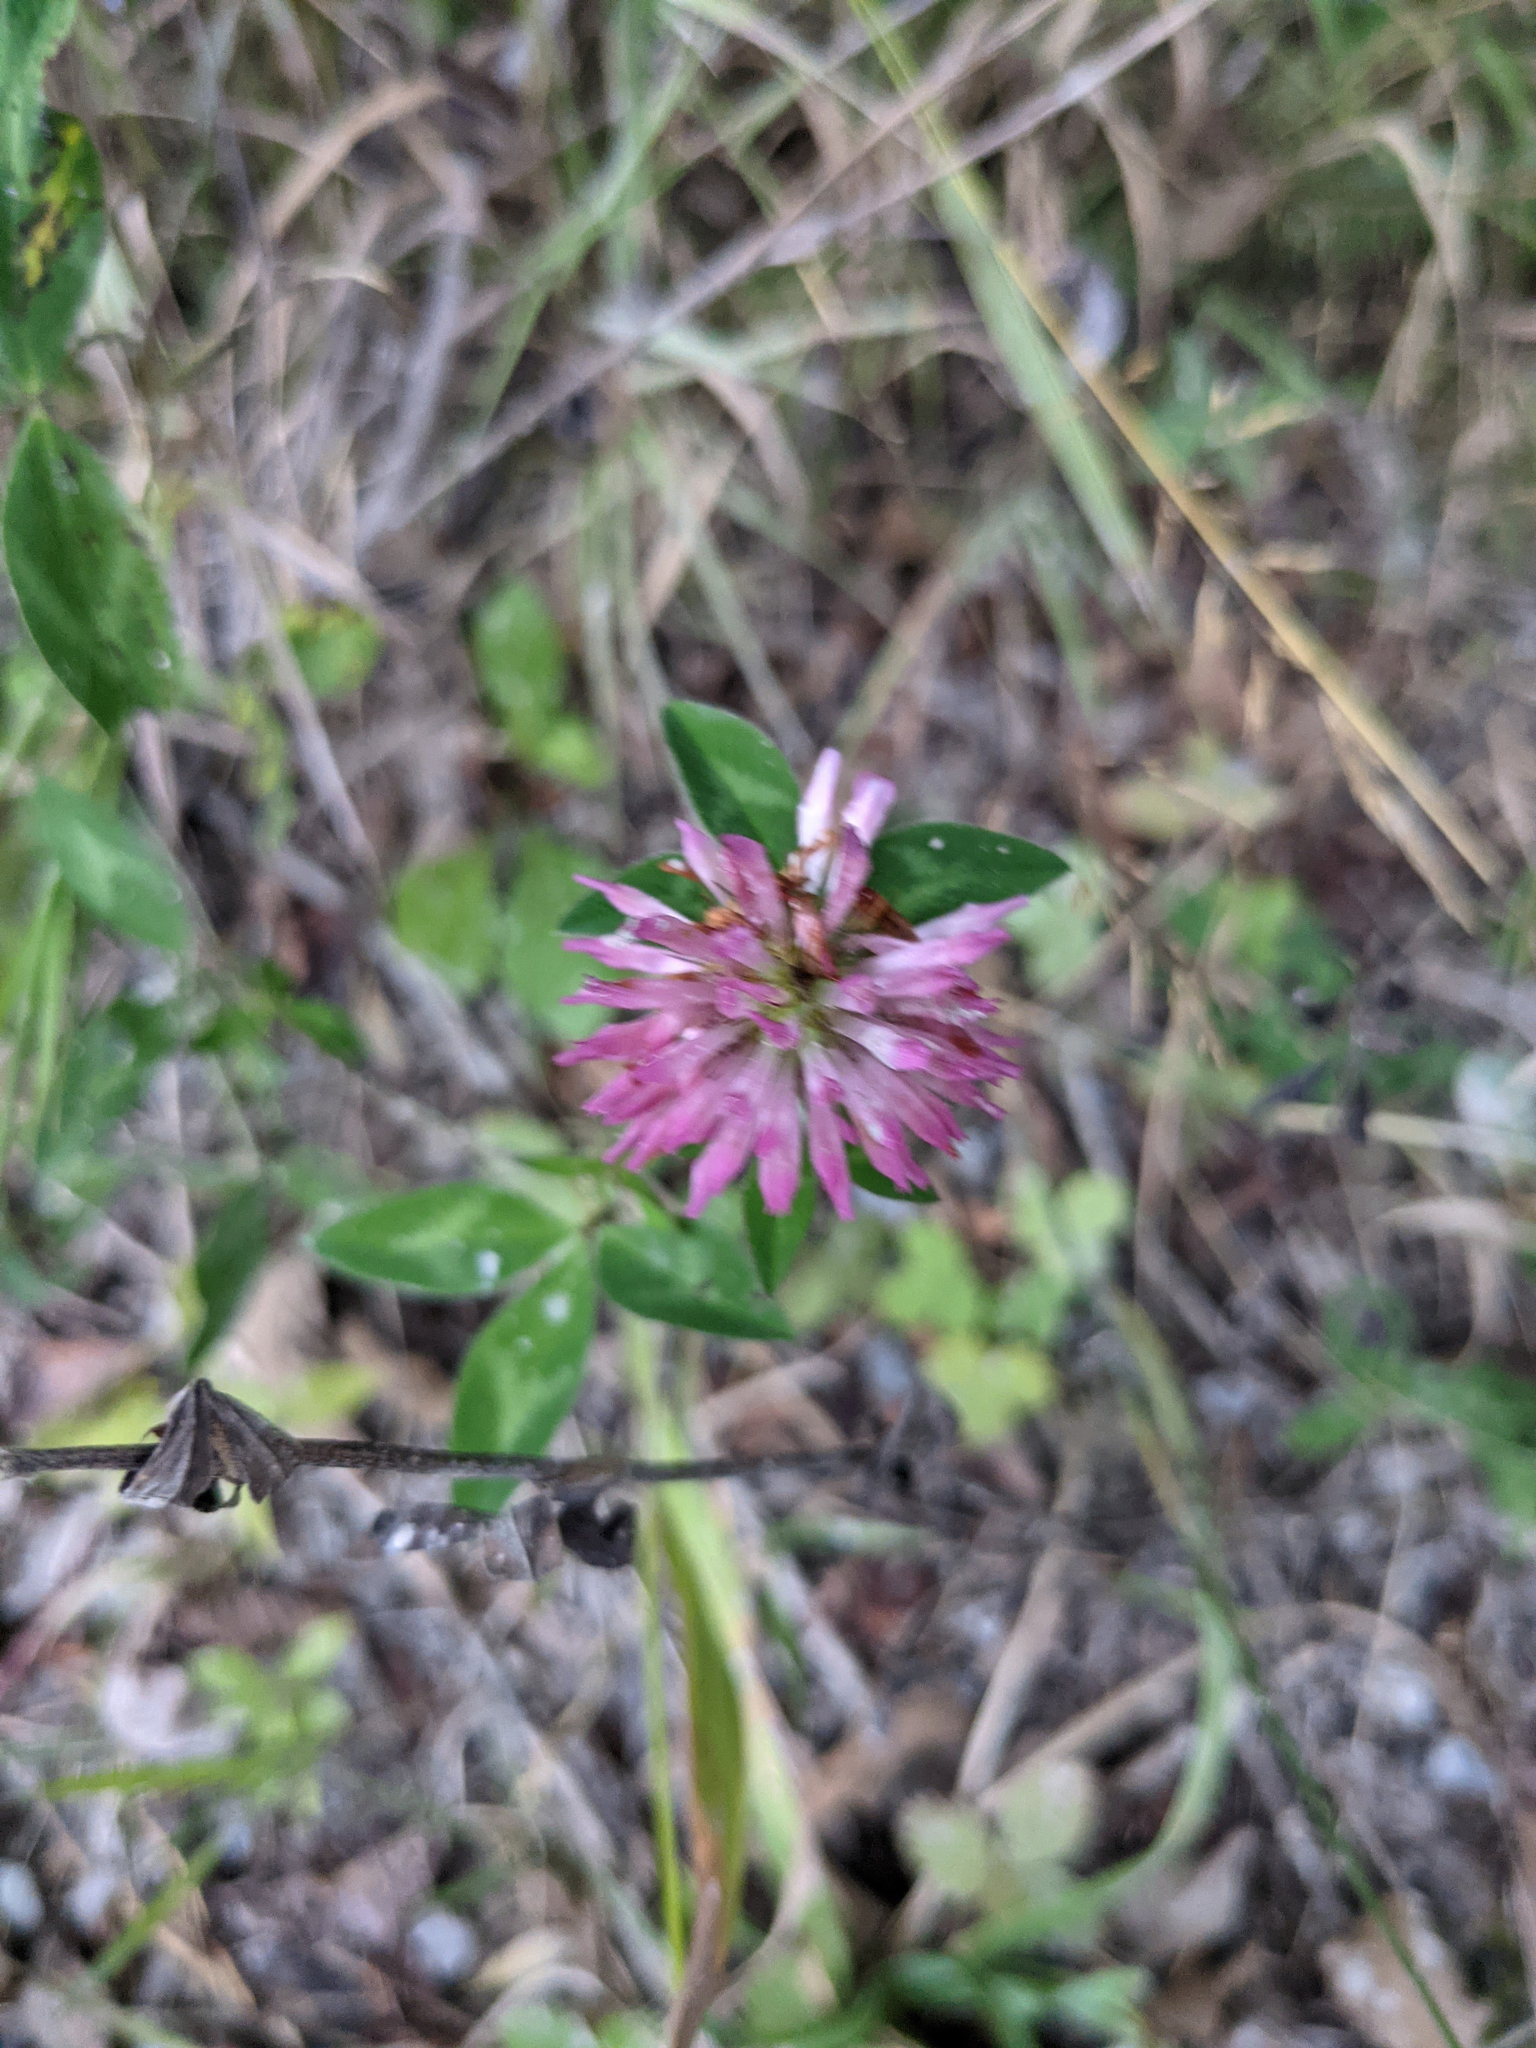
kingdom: Plantae
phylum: Tracheophyta
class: Magnoliopsida
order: Fabales
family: Fabaceae
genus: Trifolium
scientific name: Trifolium pratense
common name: Red clover
